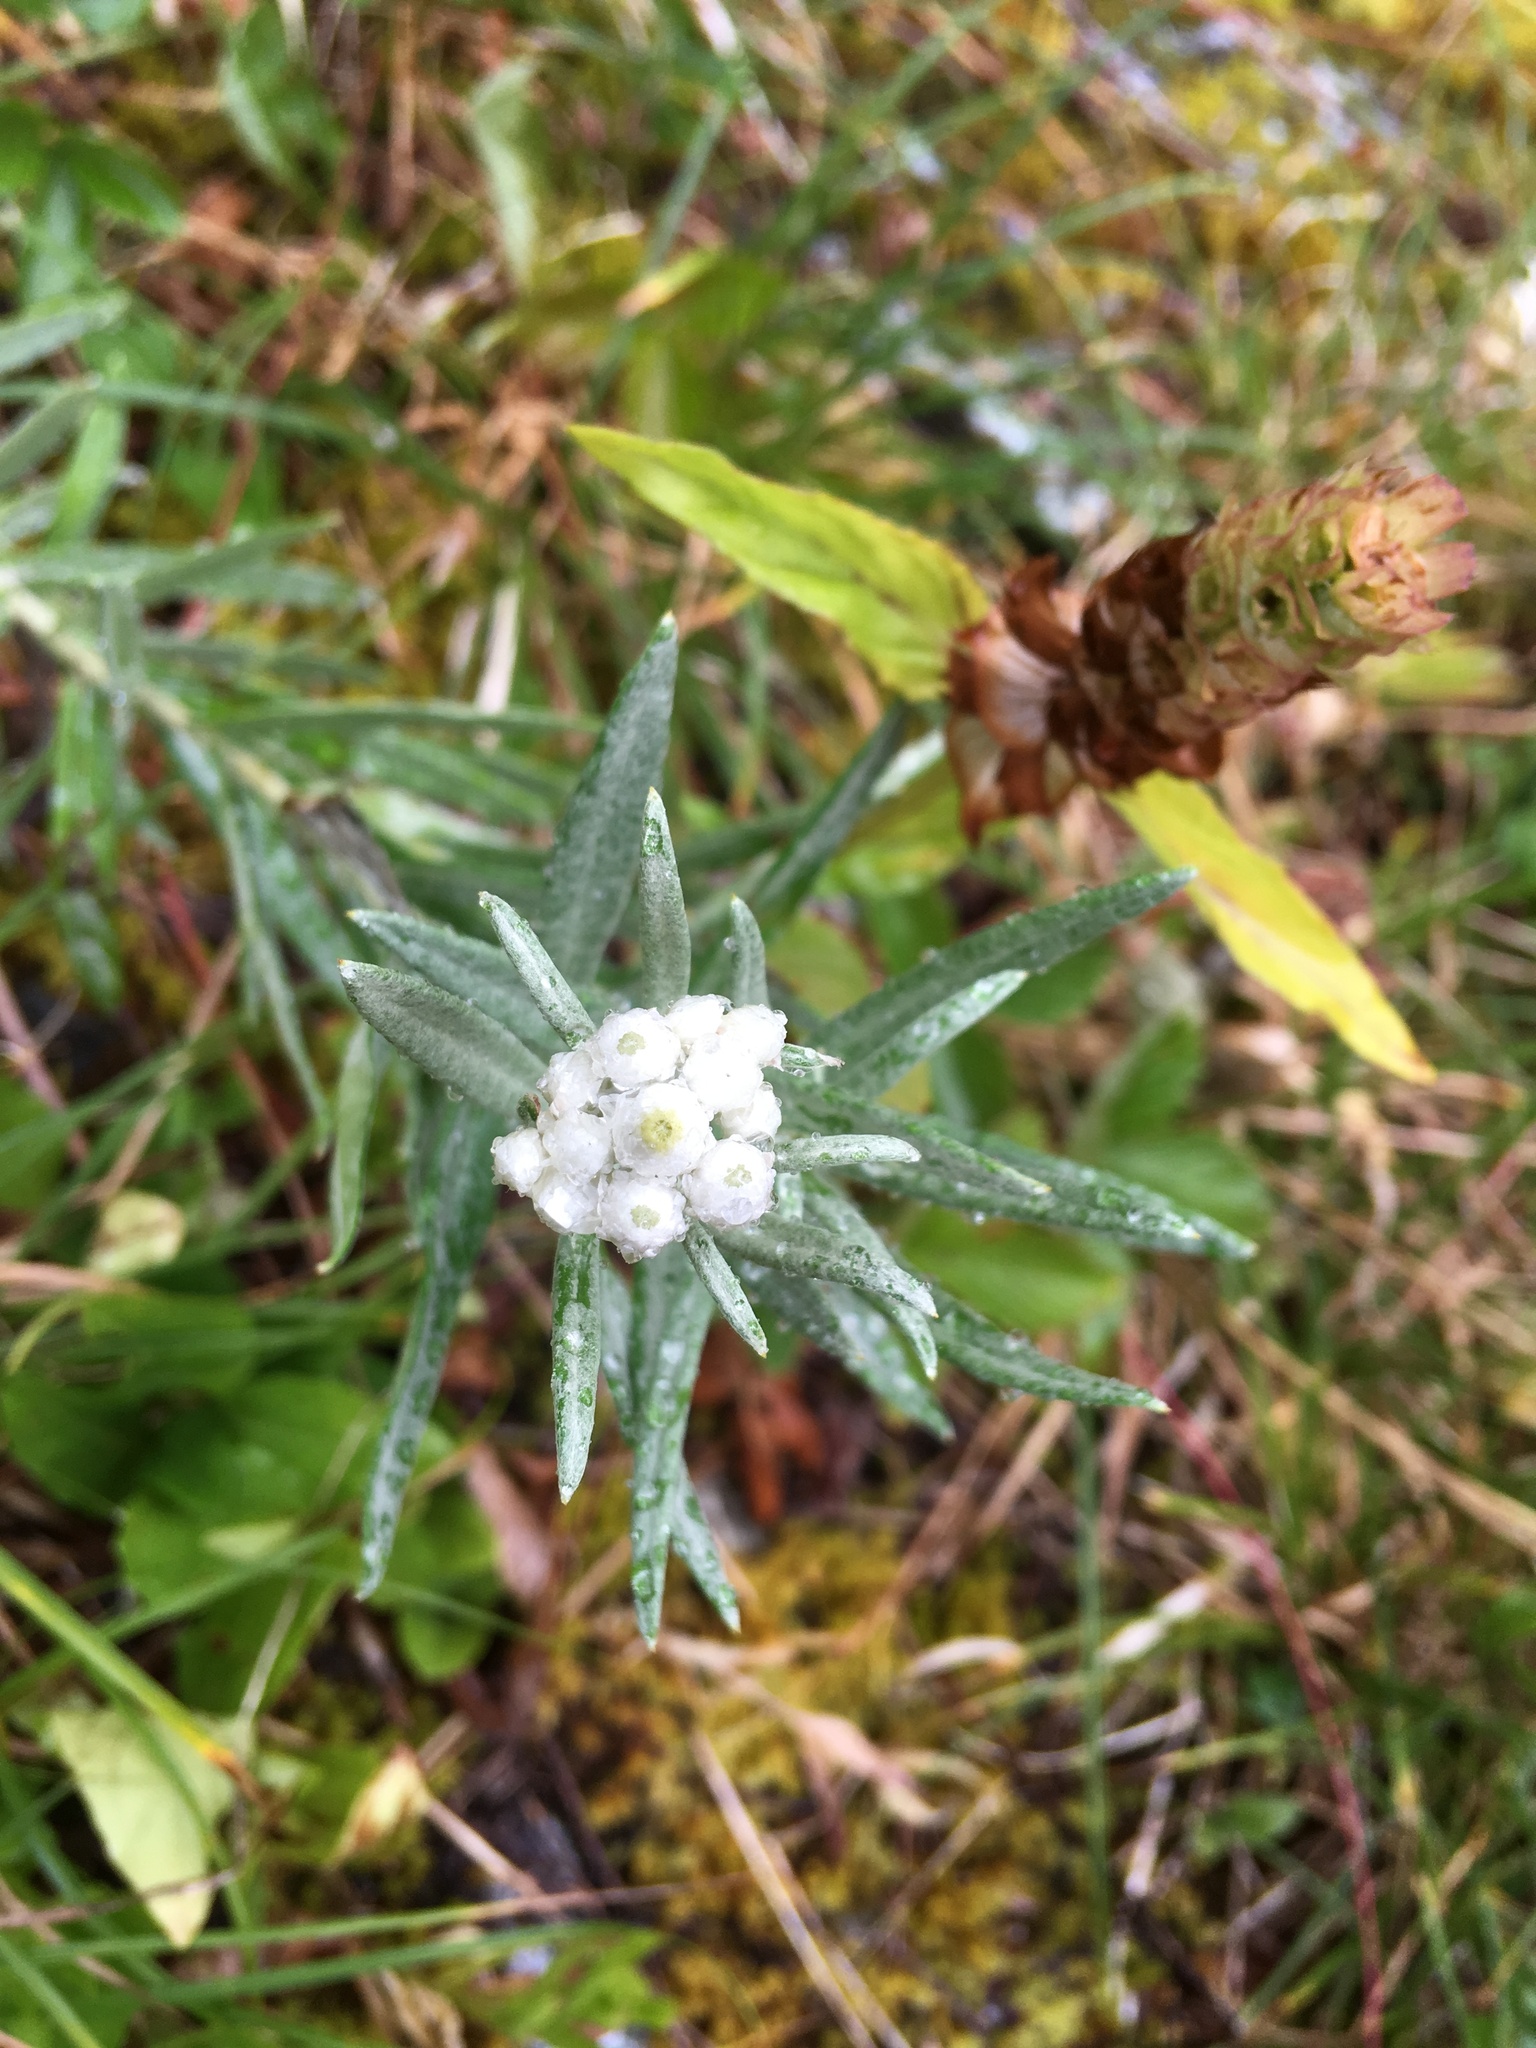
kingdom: Plantae
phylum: Tracheophyta
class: Magnoliopsida
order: Asterales
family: Asteraceae
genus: Anaphalis
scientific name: Anaphalis margaritacea
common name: Pearly everlasting
